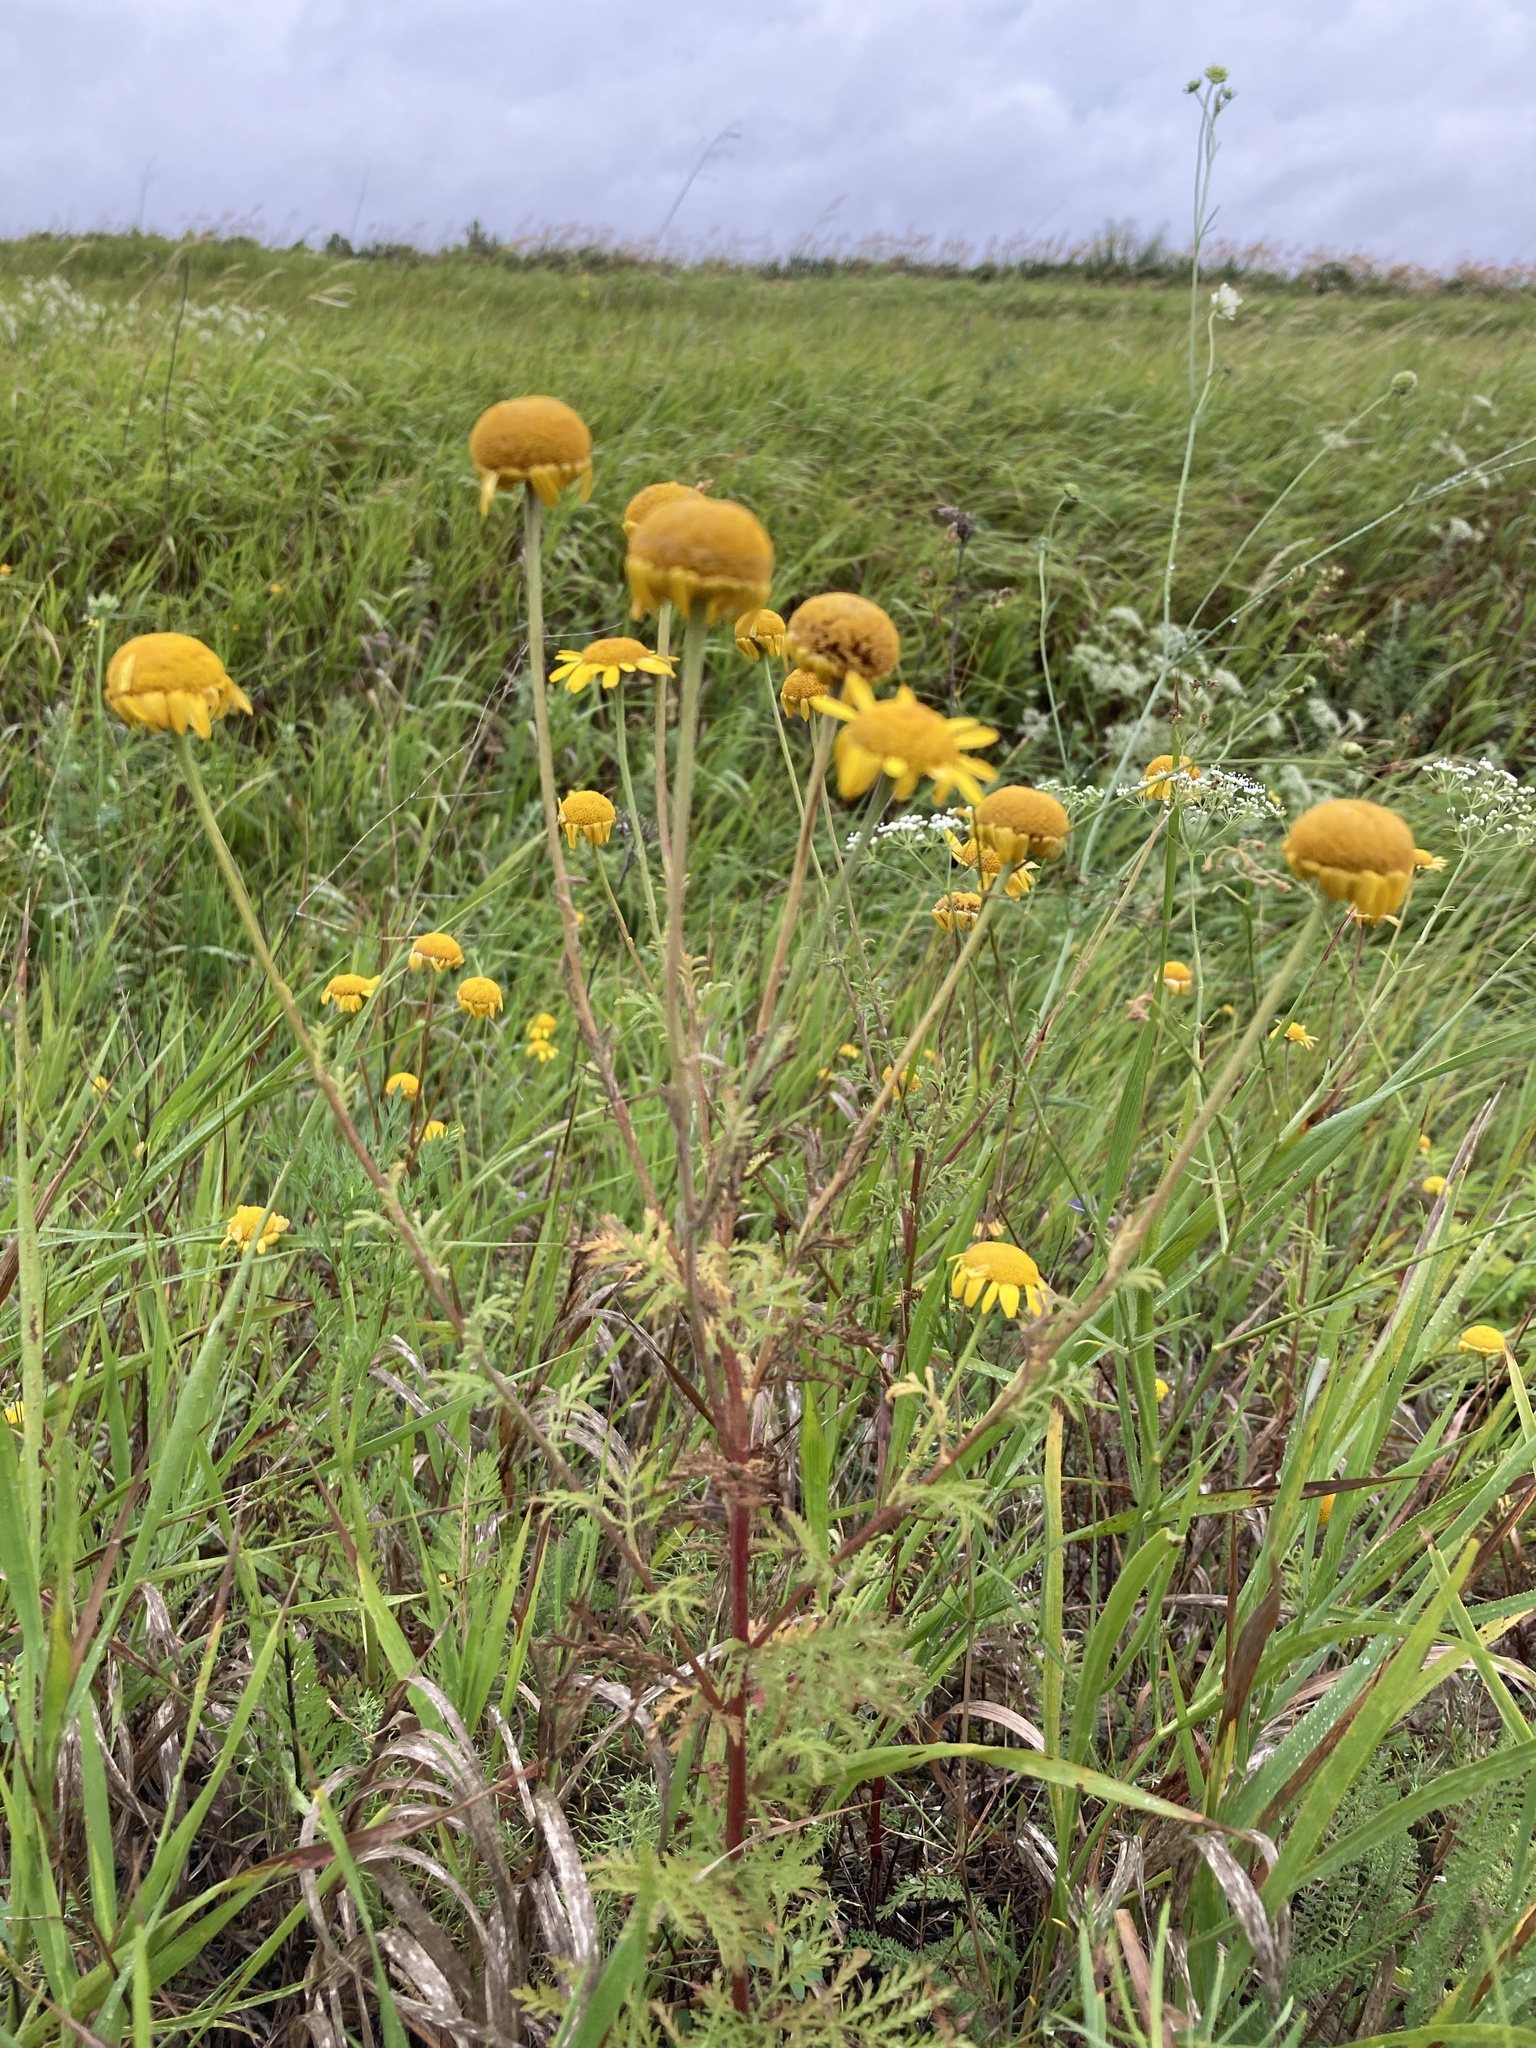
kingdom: Plantae
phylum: Tracheophyta
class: Magnoliopsida
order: Asterales
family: Asteraceae
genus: Cota
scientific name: Cota tinctoria
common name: Golden chamomile
